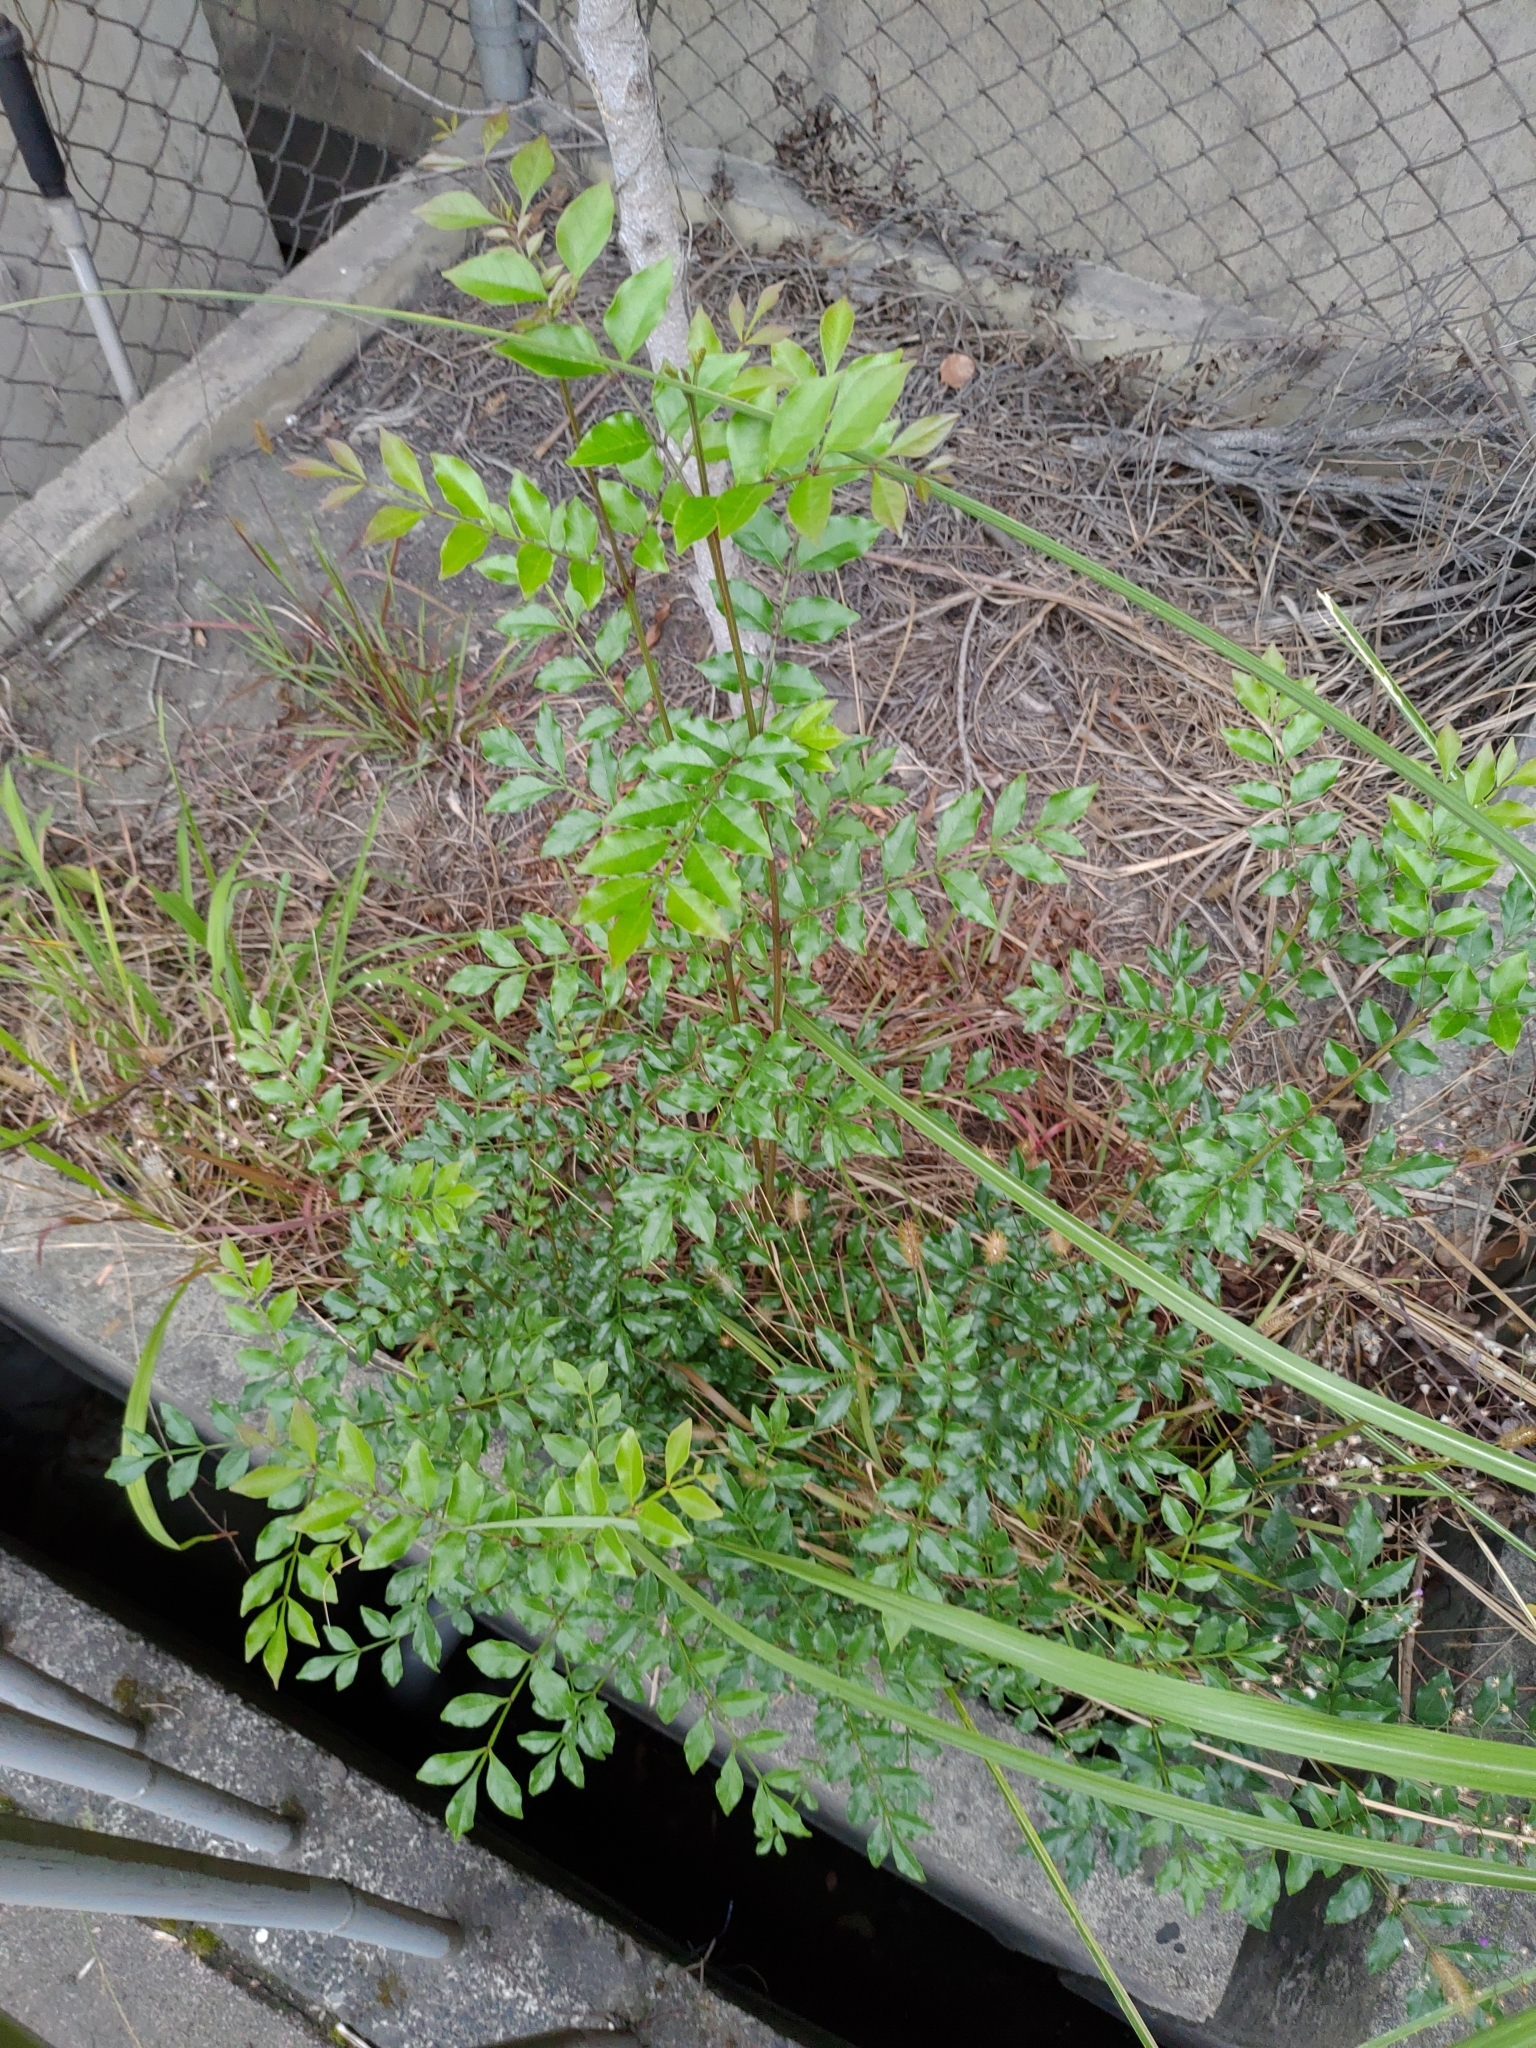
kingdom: Plantae
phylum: Tracheophyta
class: Magnoliopsida
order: Lamiales
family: Oleaceae
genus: Fraxinus
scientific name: Fraxinus griffithii
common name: Himalayan ash
